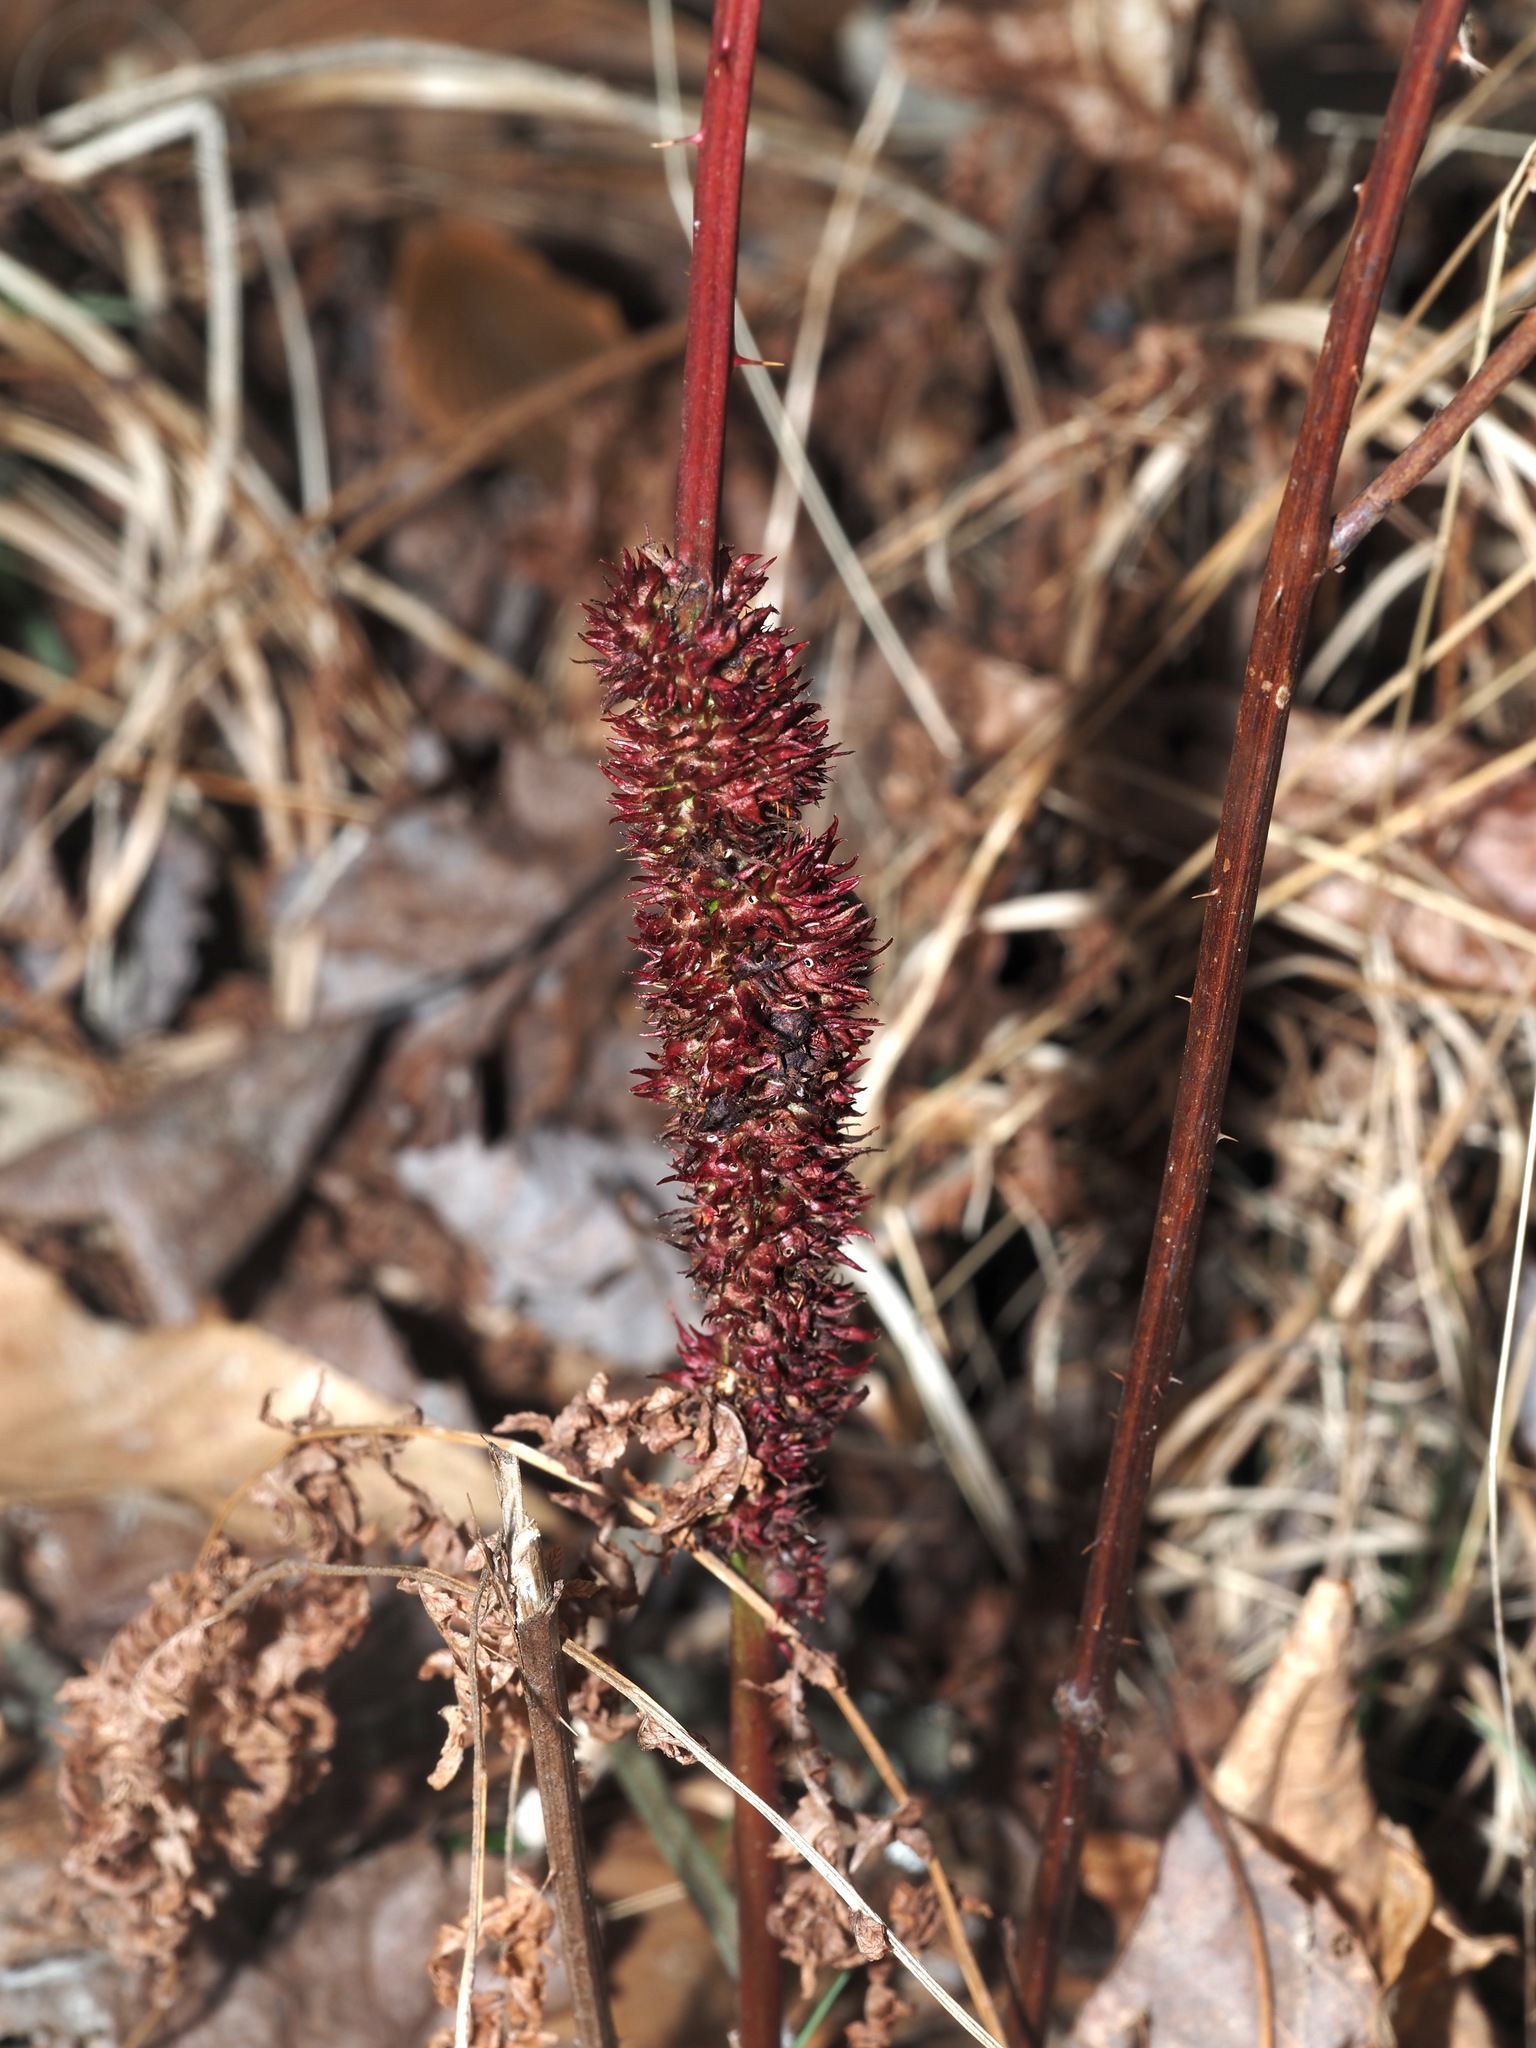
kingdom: Animalia
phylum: Arthropoda
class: Insecta
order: Hymenoptera
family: Cynipidae
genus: Diastrophus
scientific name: Diastrophus
